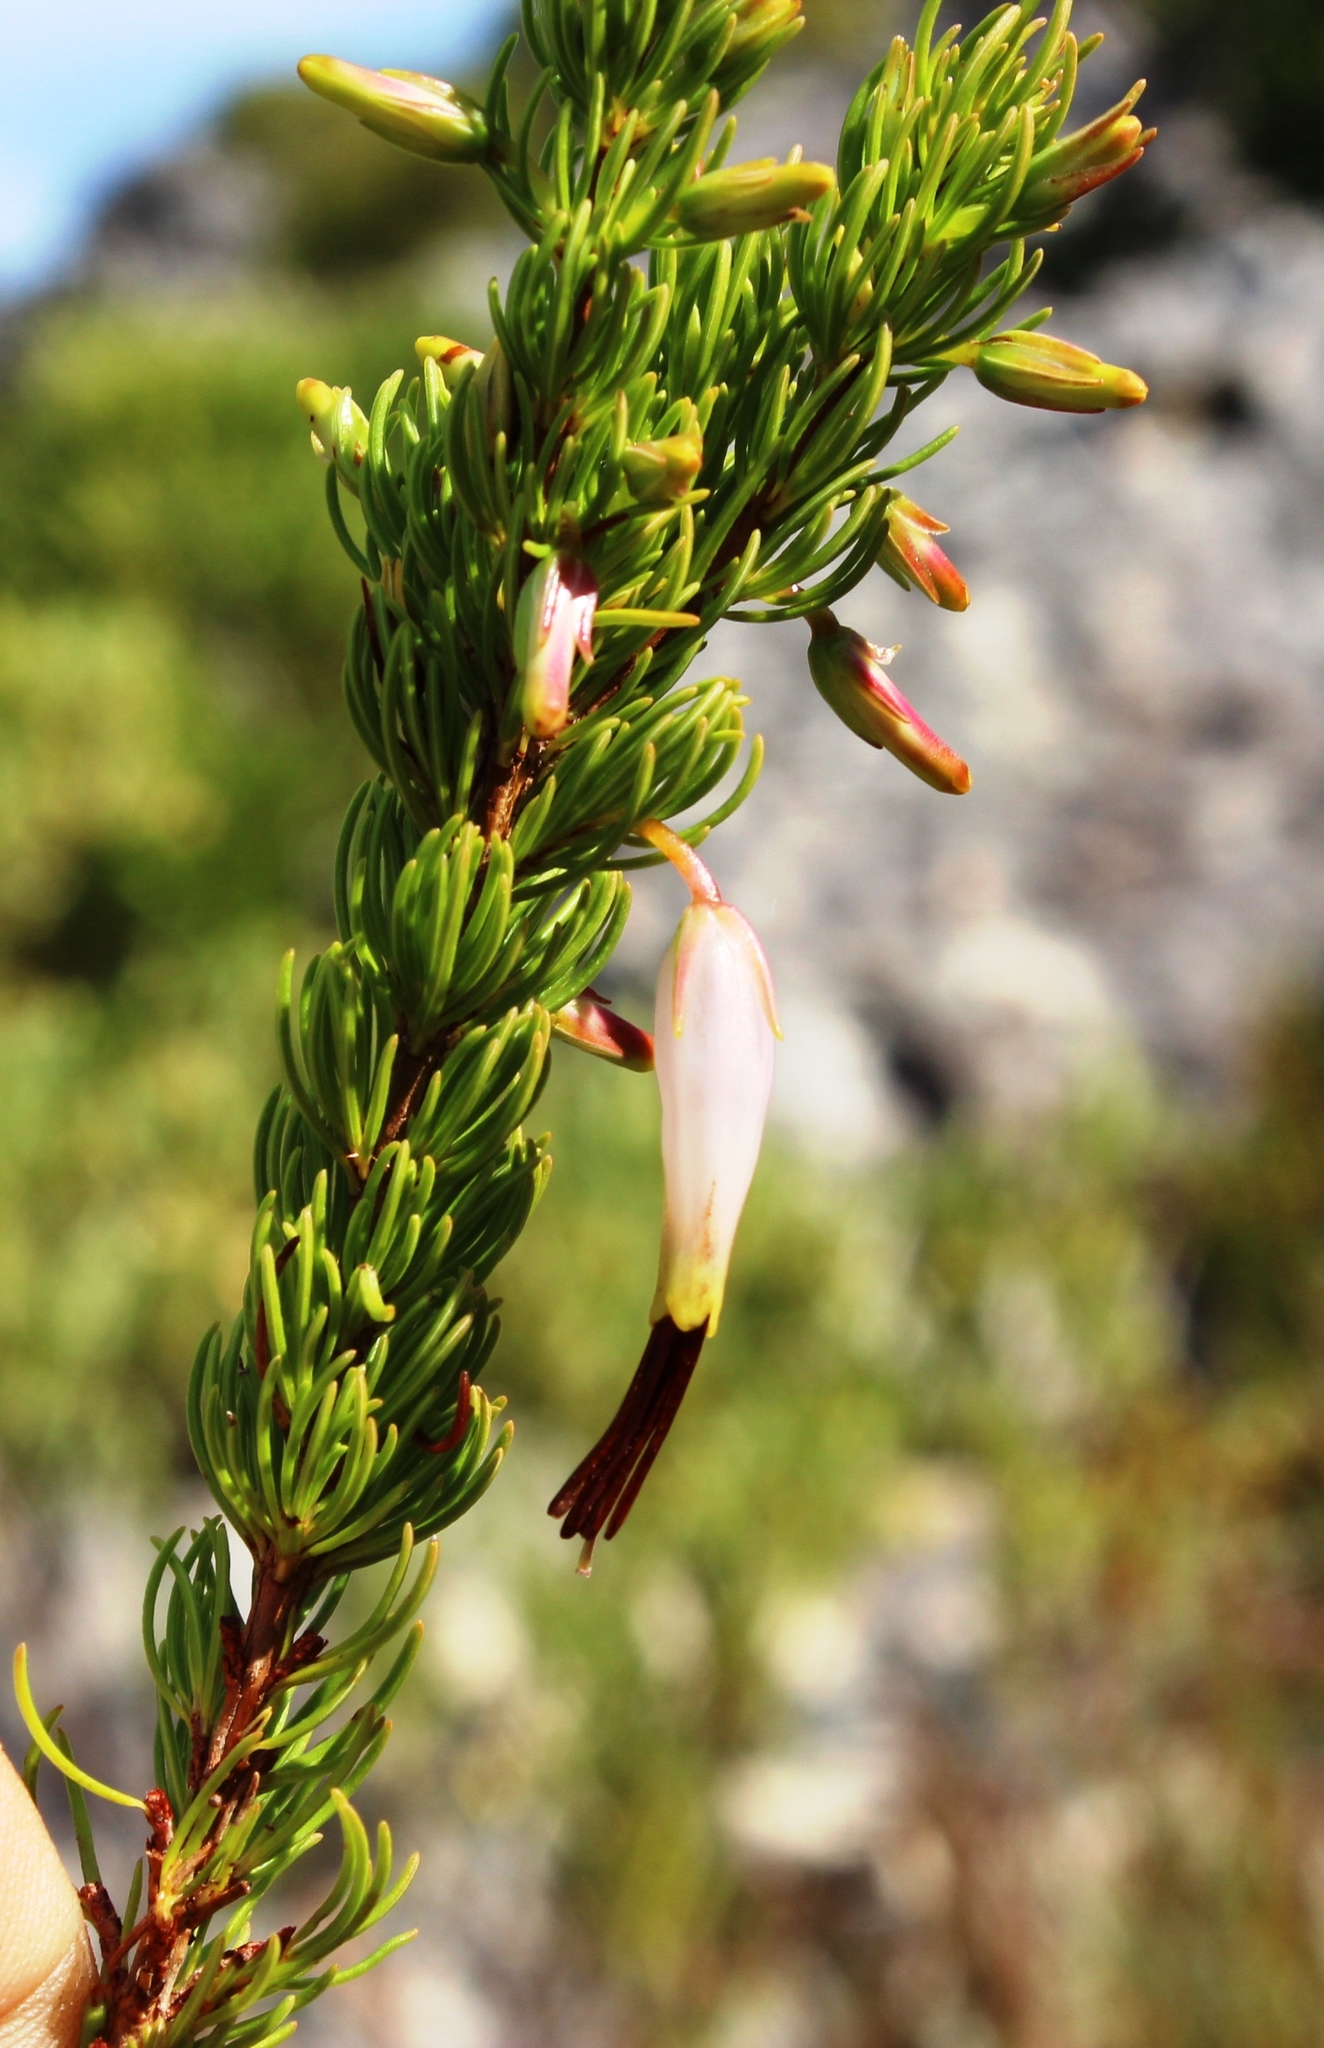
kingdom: Plantae
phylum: Tracheophyta
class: Magnoliopsida
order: Ericales
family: Ericaceae
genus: Erica
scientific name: Erica plukenetii
